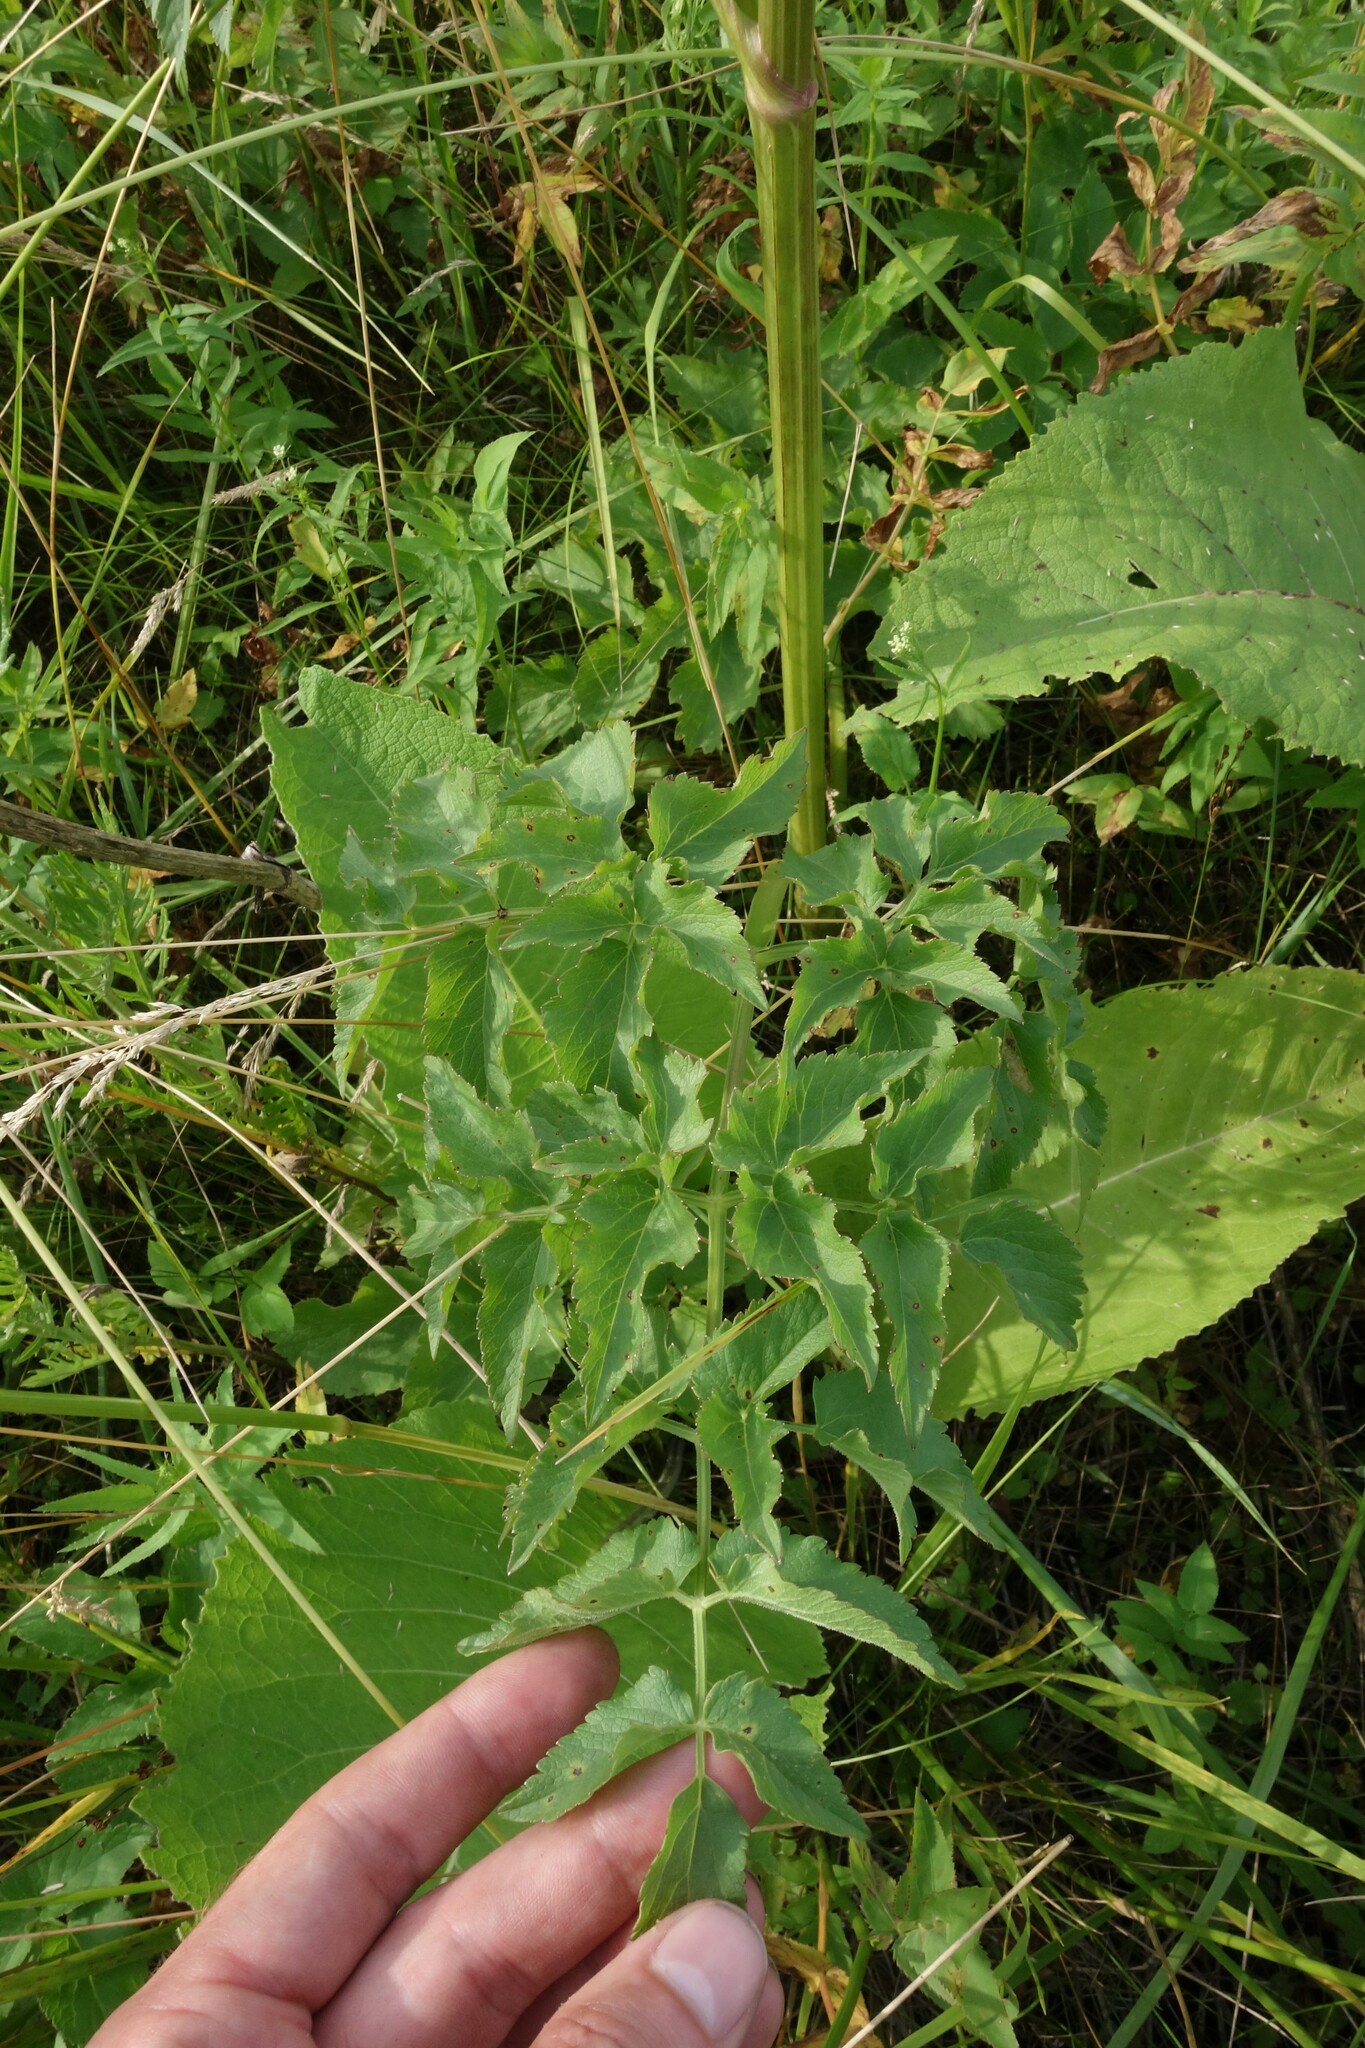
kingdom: Plantae
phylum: Tracheophyta
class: Magnoliopsida
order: Apiales
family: Apiaceae
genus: Ostericum
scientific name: Ostericum palustre
